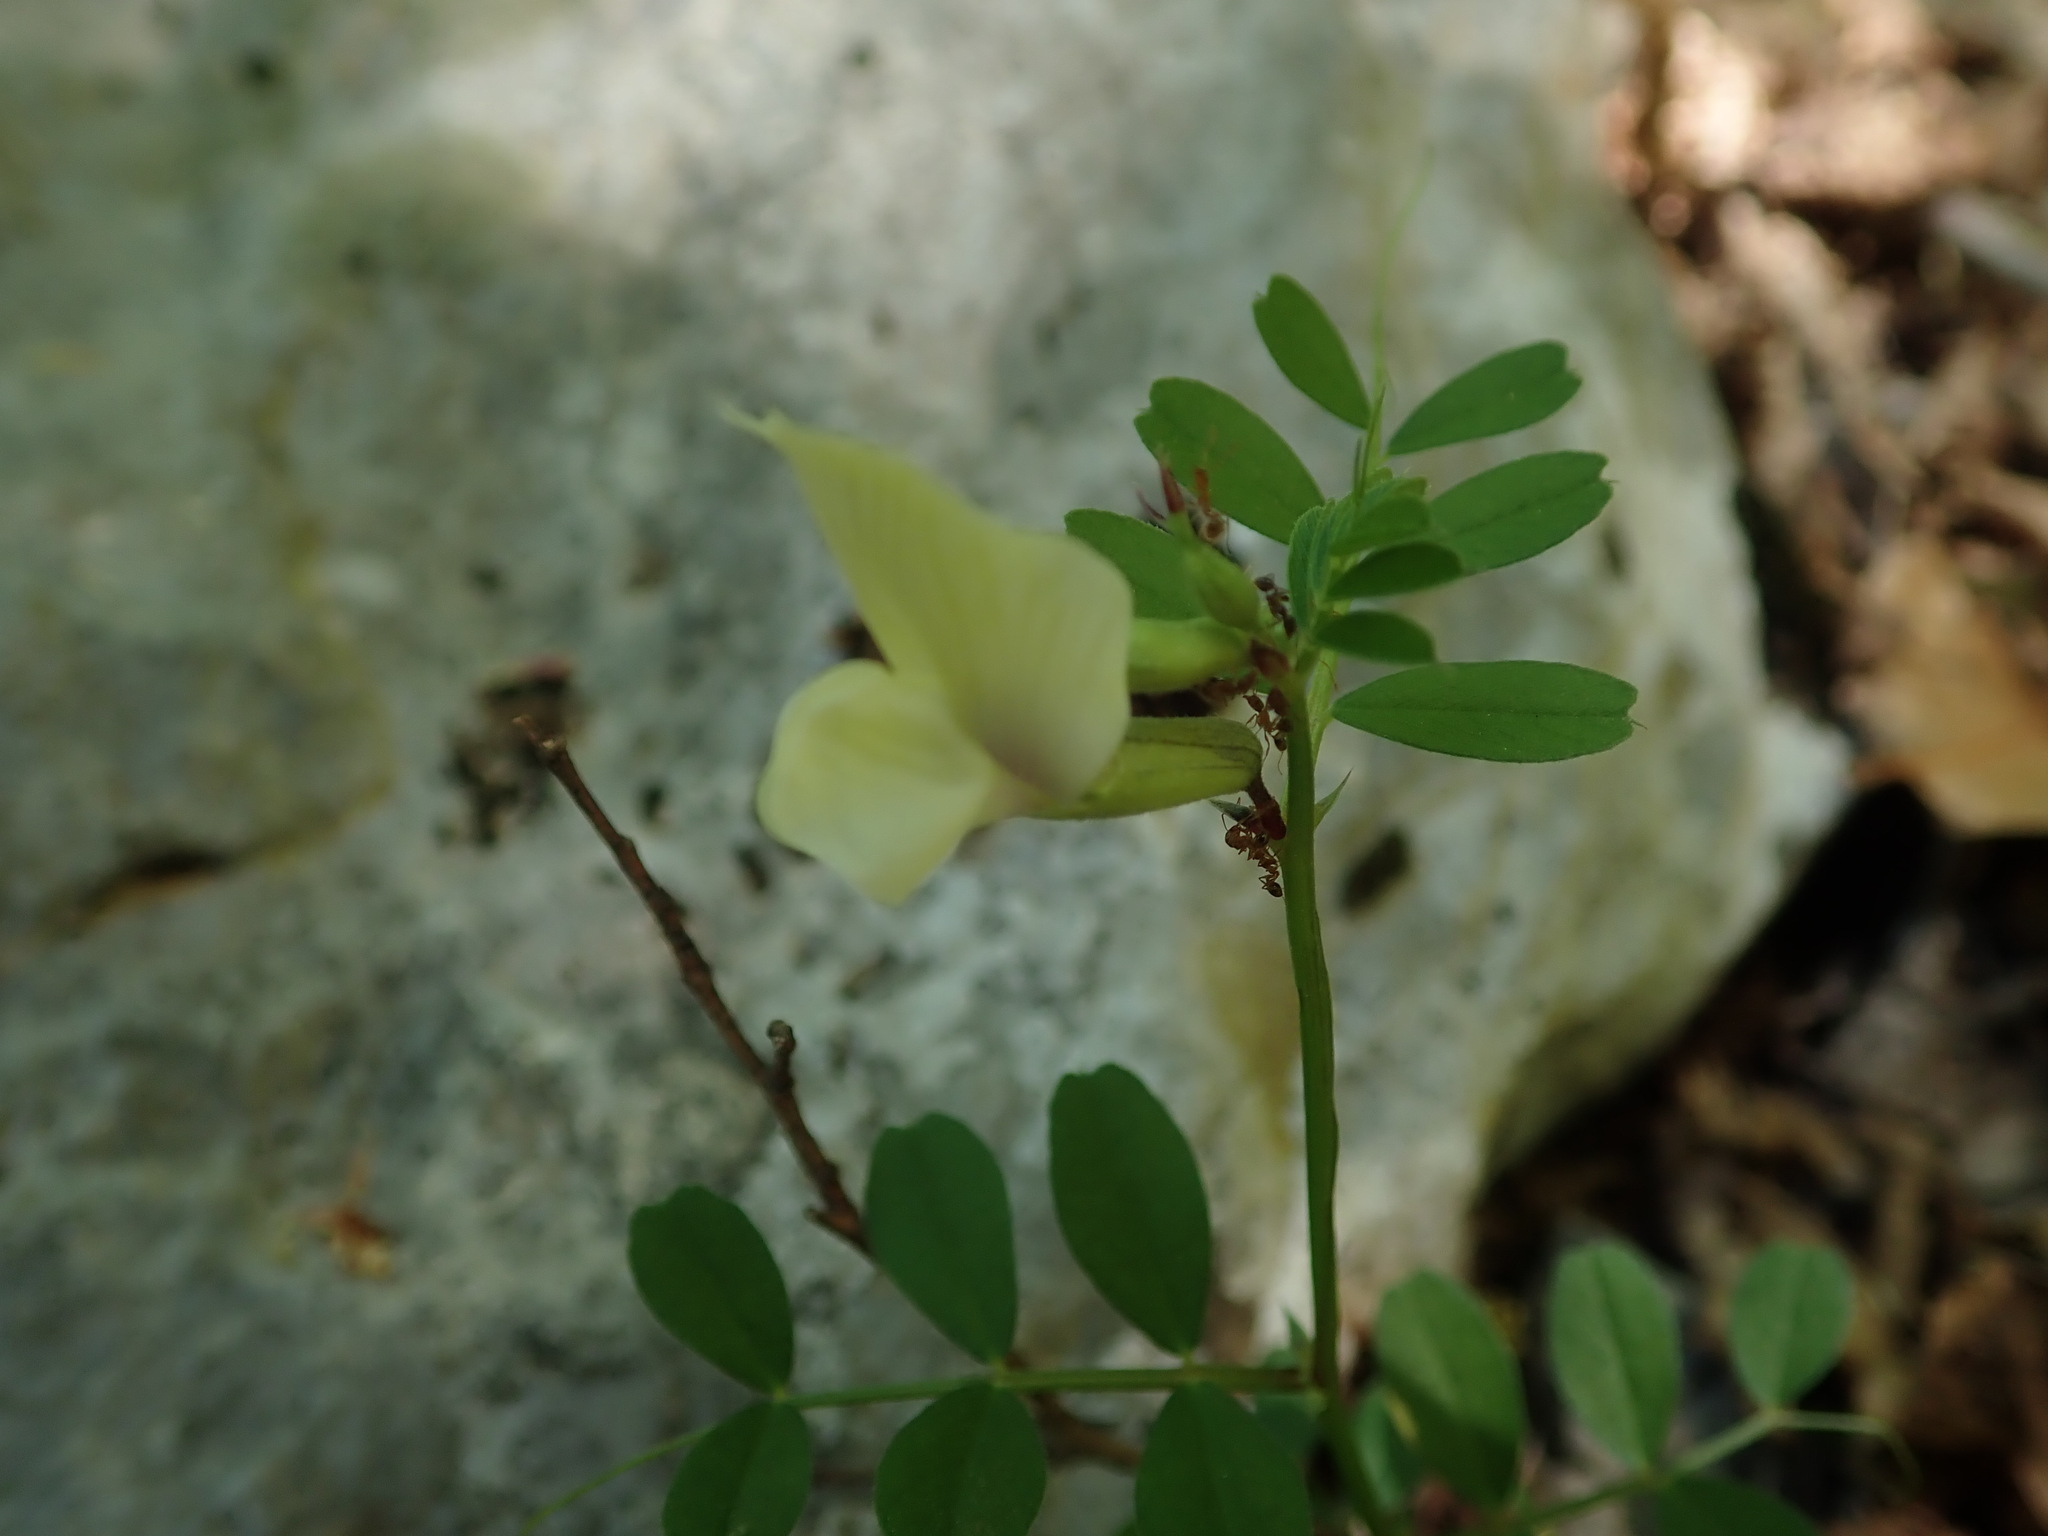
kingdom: Plantae
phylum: Tracheophyta
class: Magnoliopsida
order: Fabales
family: Fabaceae
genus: Vicia
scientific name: Vicia grandiflora
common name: Large yellow vetch
